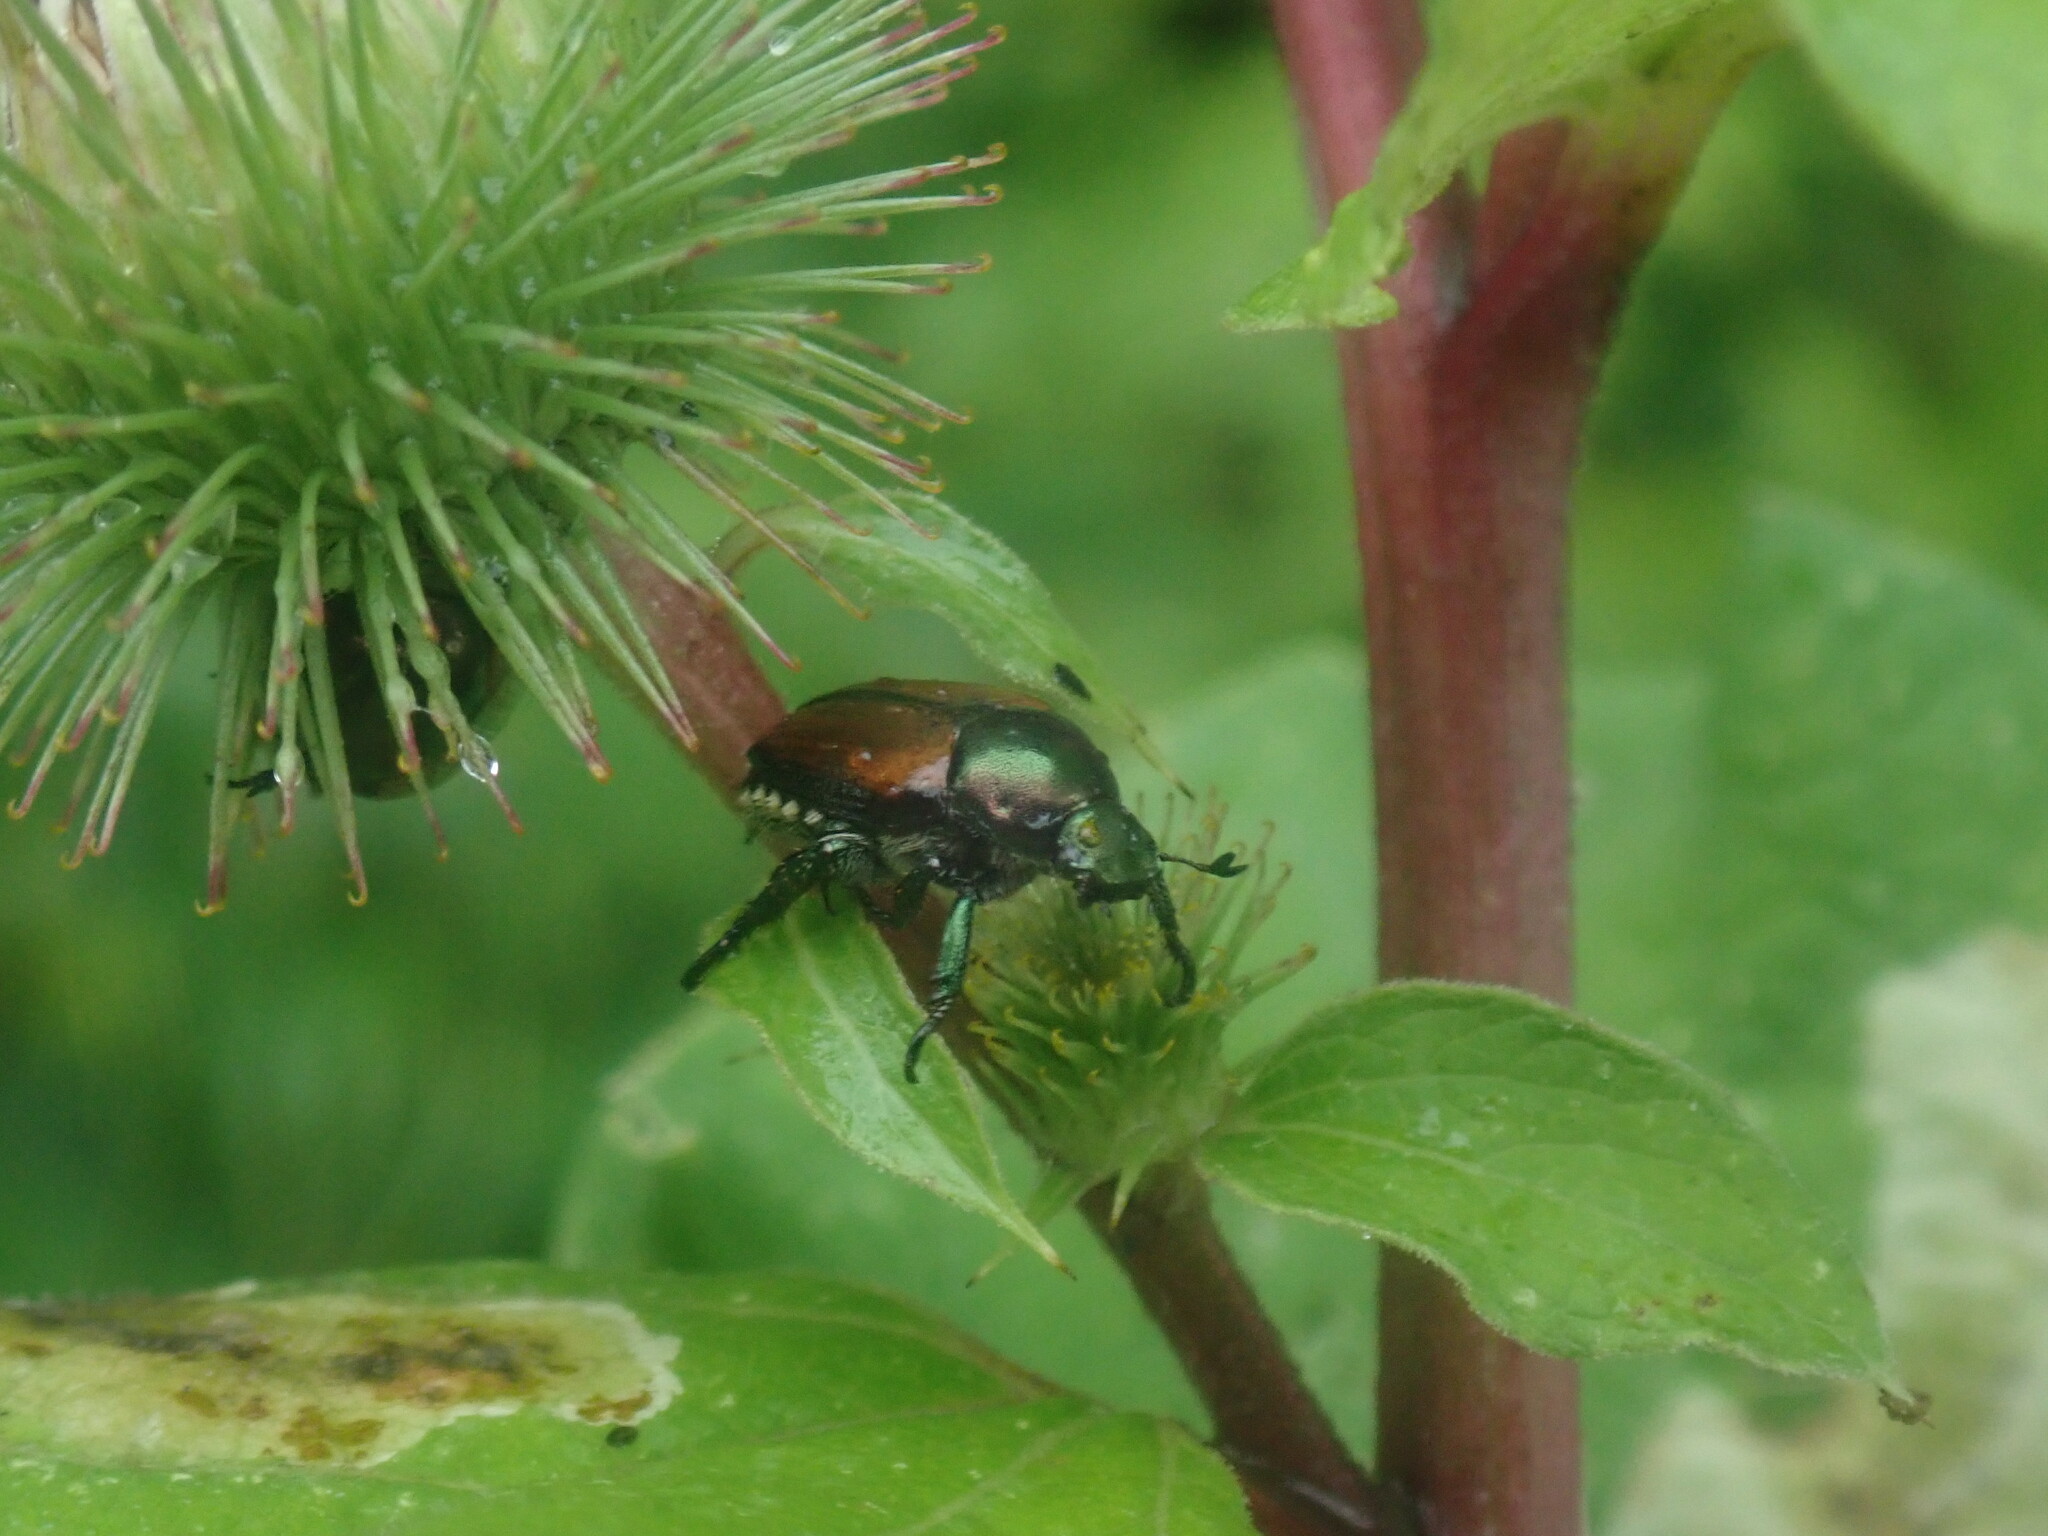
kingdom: Animalia
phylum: Arthropoda
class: Insecta
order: Coleoptera
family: Scarabaeidae
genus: Popillia
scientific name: Popillia japonica
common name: Japanese beetle
